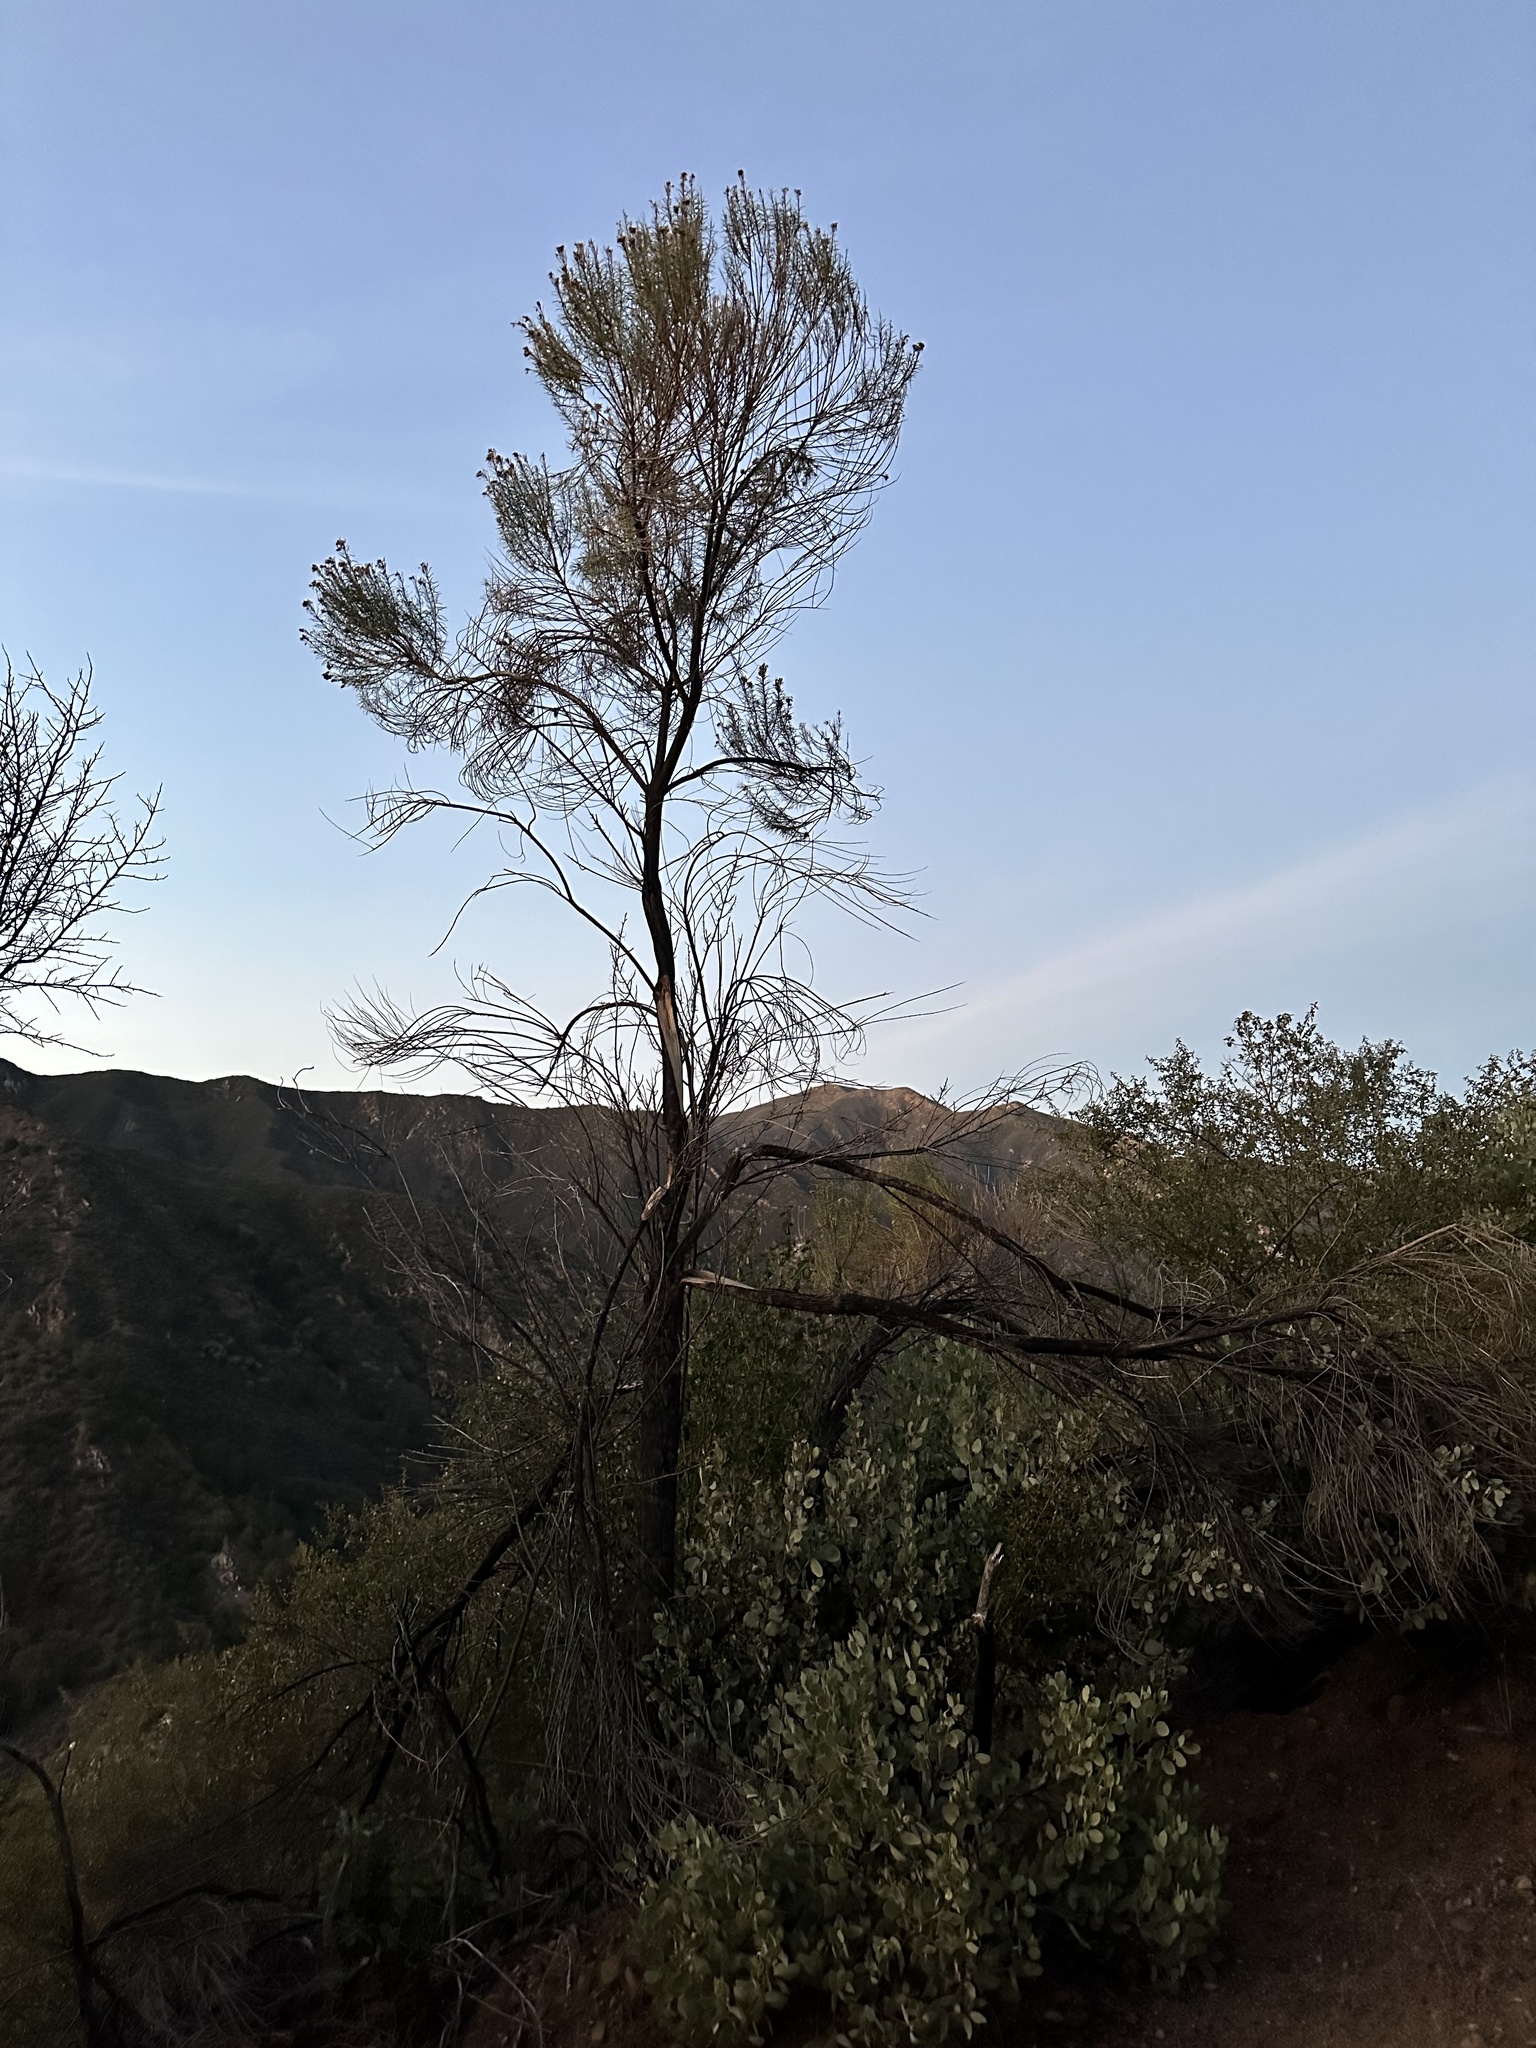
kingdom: Plantae
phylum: Tracheophyta
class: Magnoliopsida
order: Asterales
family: Asteraceae
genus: Ericameria
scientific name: Ericameria arborescens
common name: Goldenfleece
